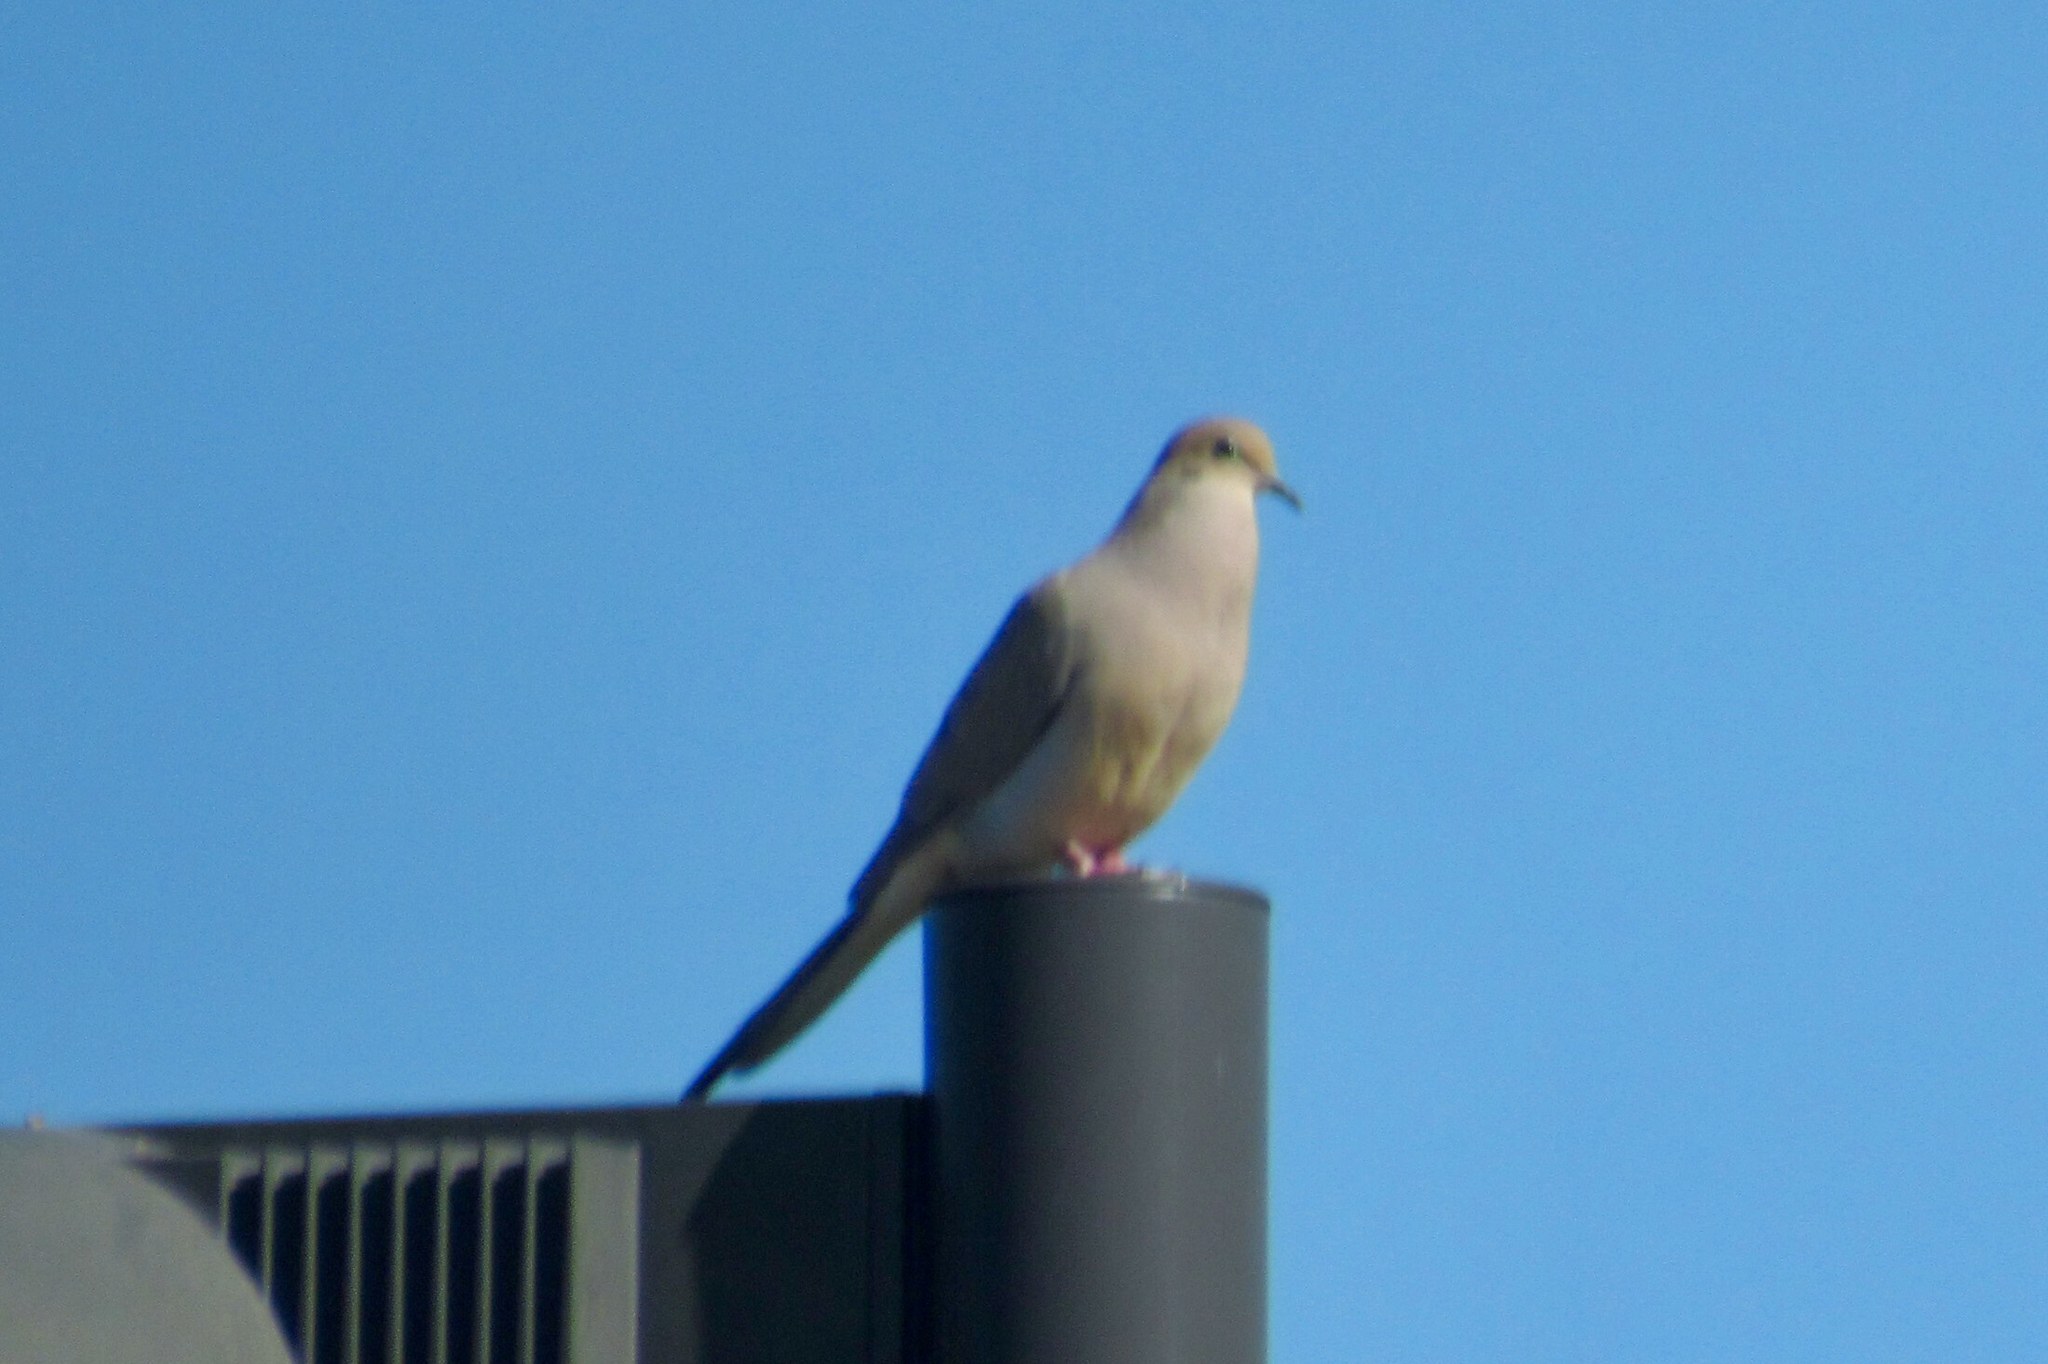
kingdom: Animalia
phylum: Chordata
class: Aves
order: Columbiformes
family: Columbidae
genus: Zenaida
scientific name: Zenaida macroura
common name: Mourning dove
